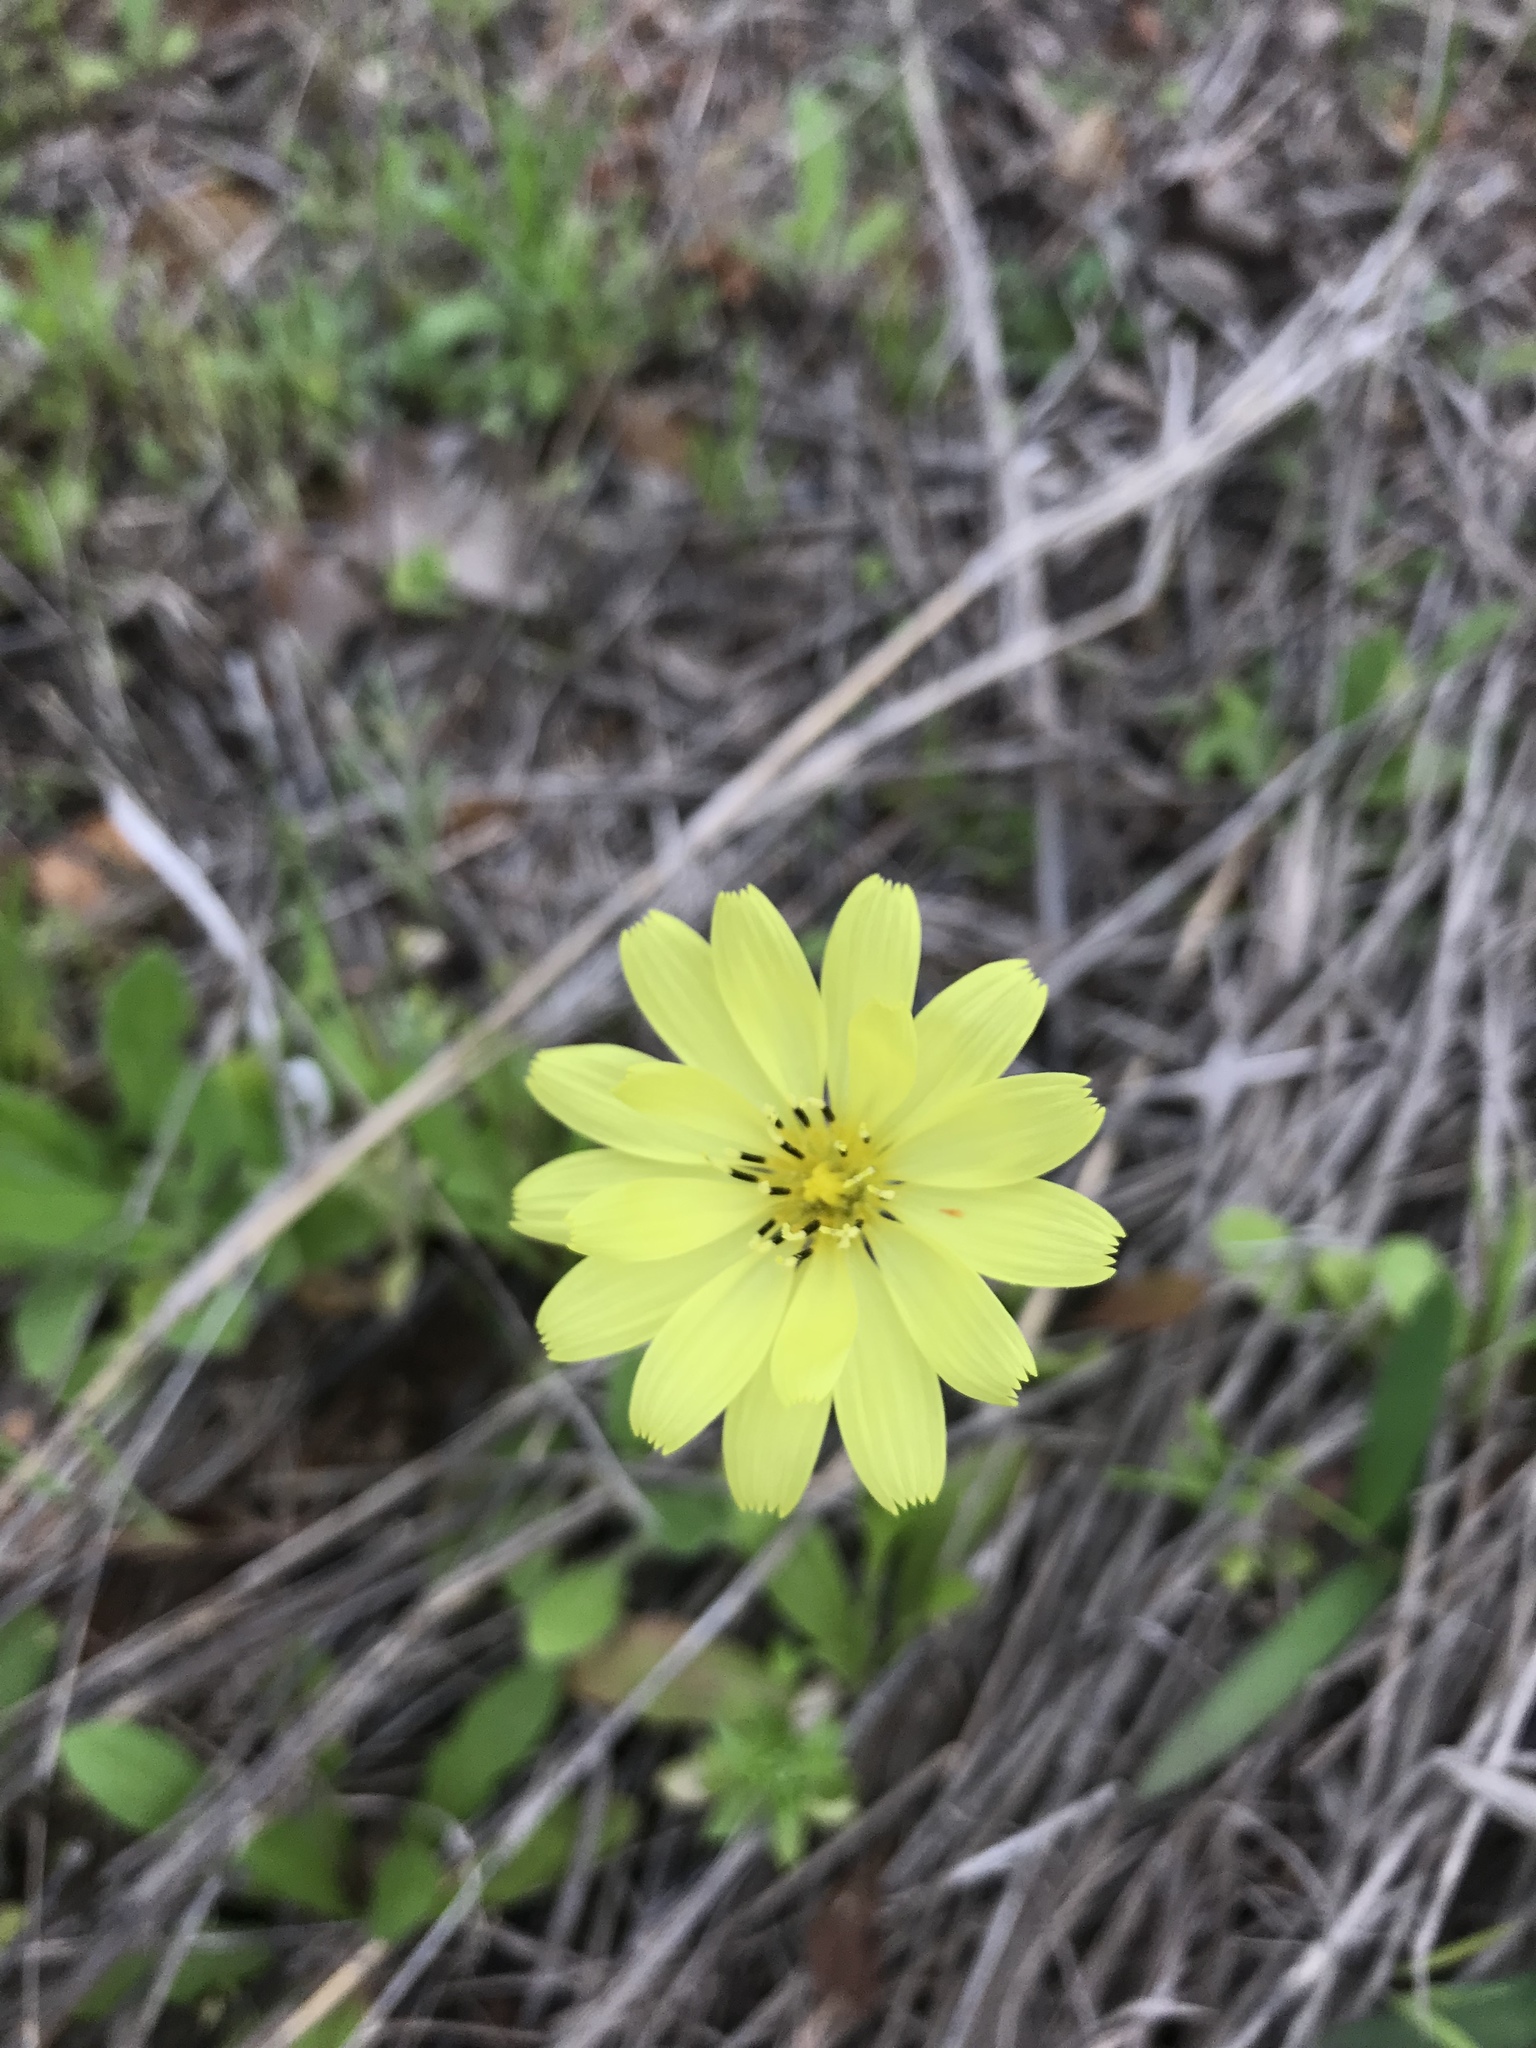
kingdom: Plantae
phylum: Tracheophyta
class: Magnoliopsida
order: Asterales
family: Asteraceae
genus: Pyrrhopappus
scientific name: Pyrrhopappus pauciflorus
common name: Texas false dandelion
